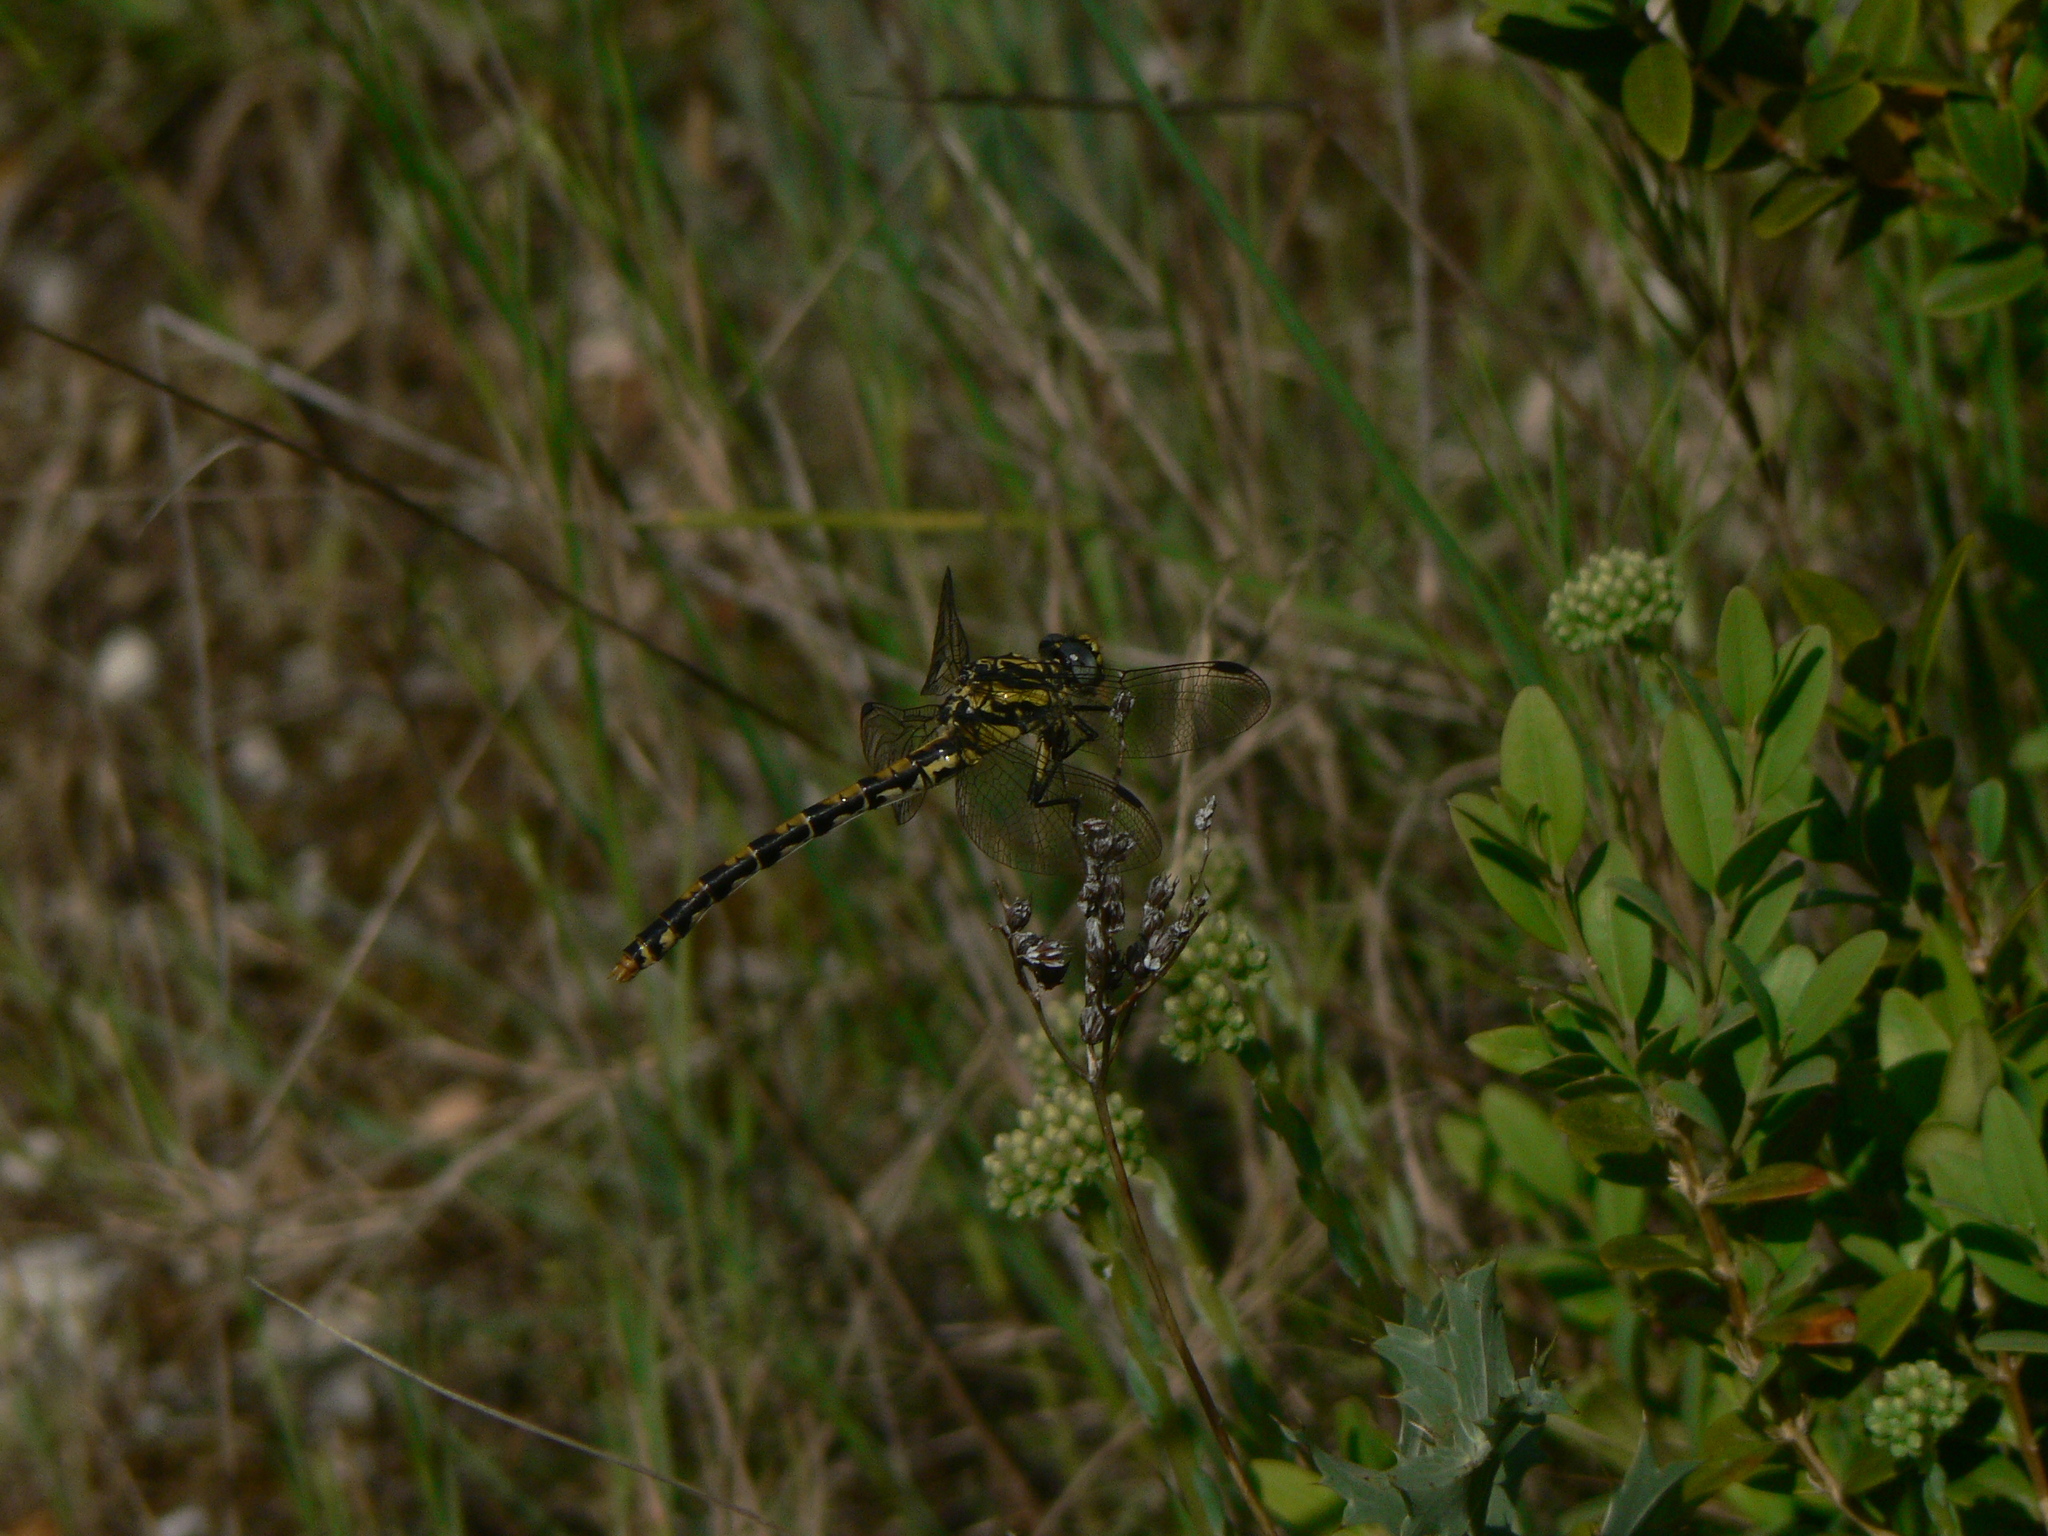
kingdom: Animalia
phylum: Arthropoda
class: Insecta
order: Odonata
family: Gomphidae
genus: Onychogomphus
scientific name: Onychogomphus uncatus
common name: Large pincertail
